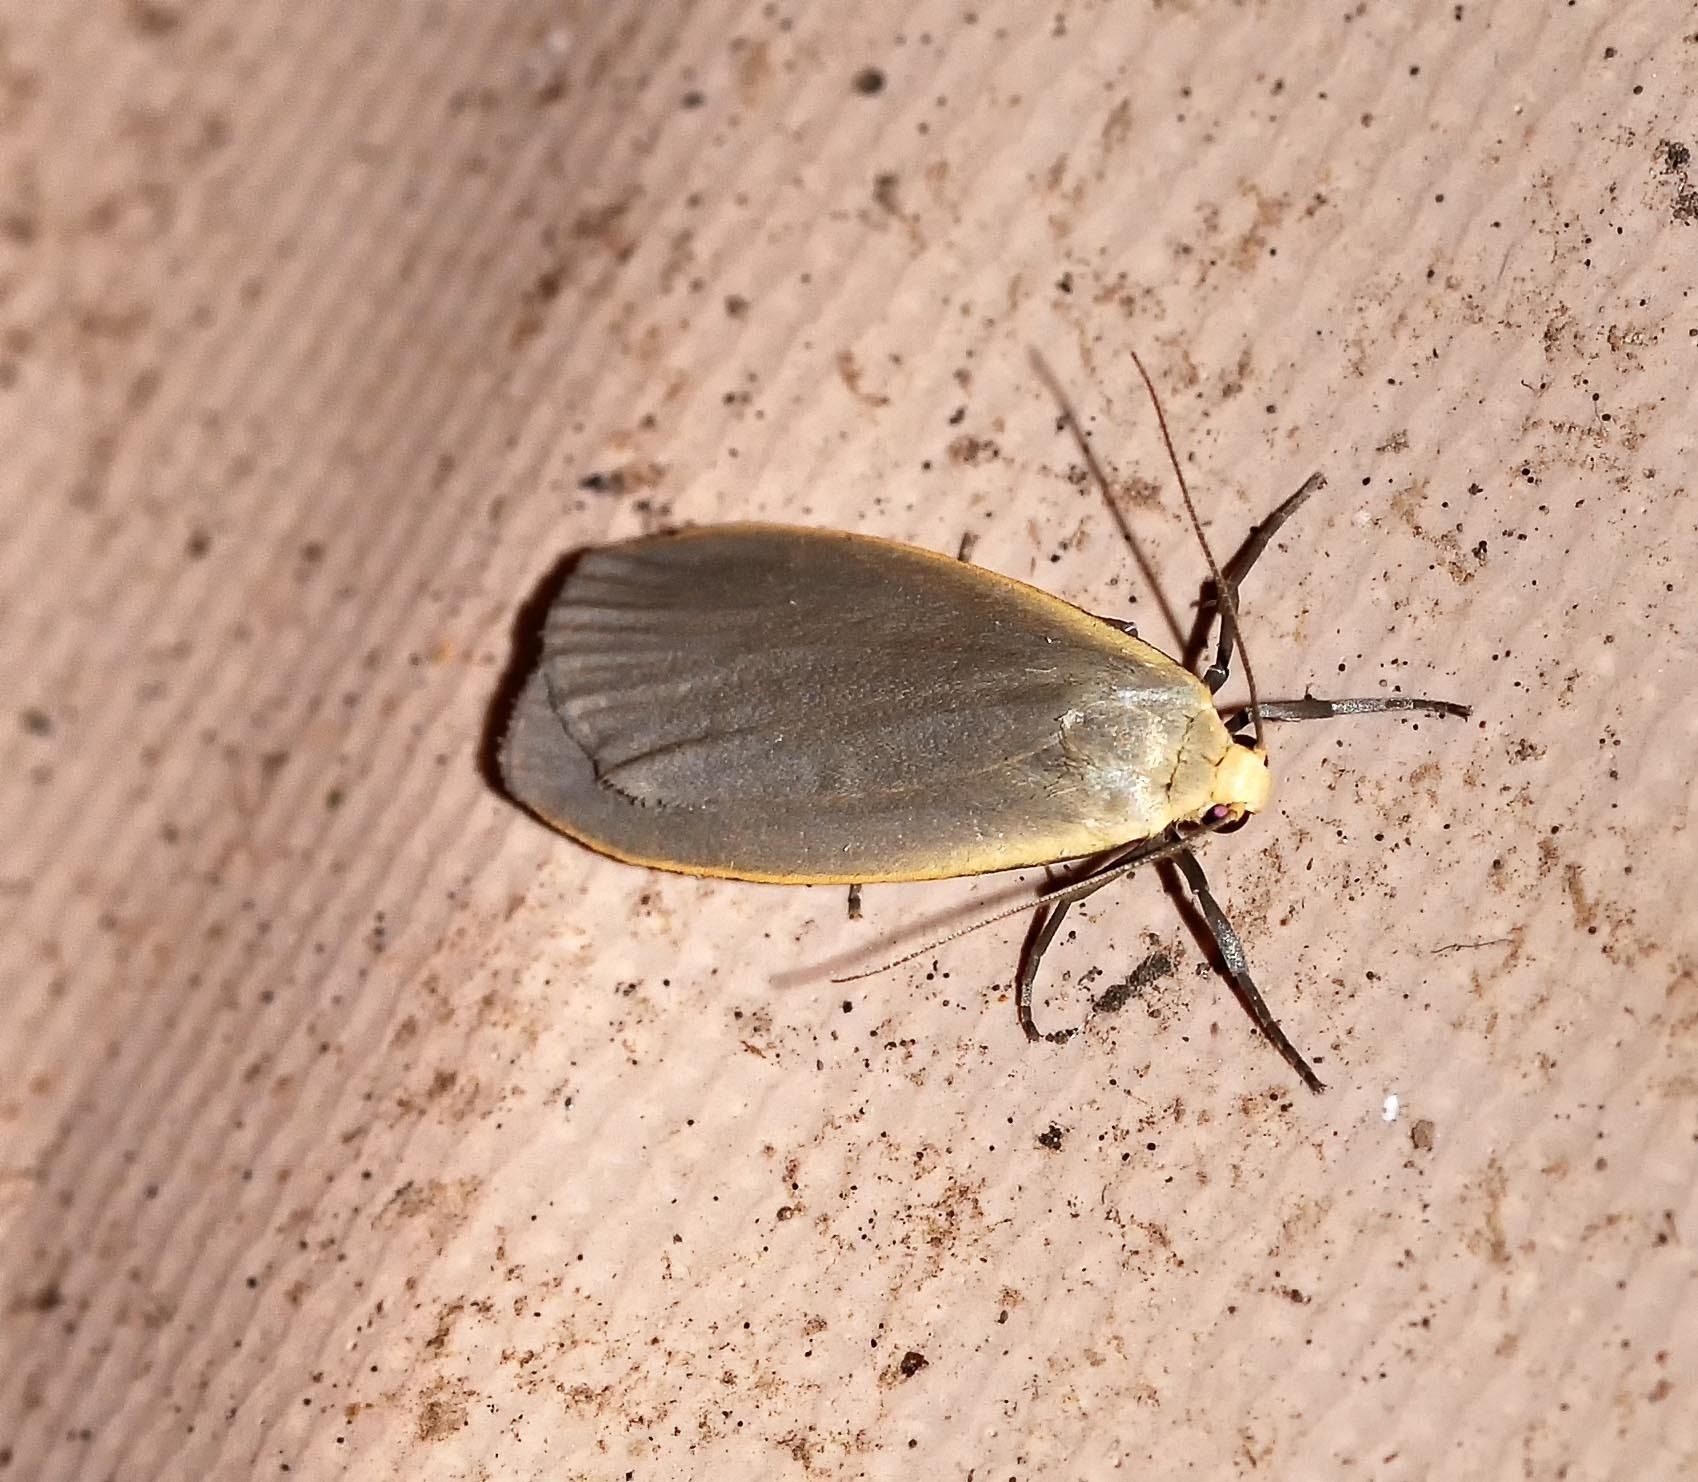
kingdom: Animalia
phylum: Arthropoda
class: Insecta
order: Lepidoptera
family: Erebidae
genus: Collita
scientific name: Collita griseola
